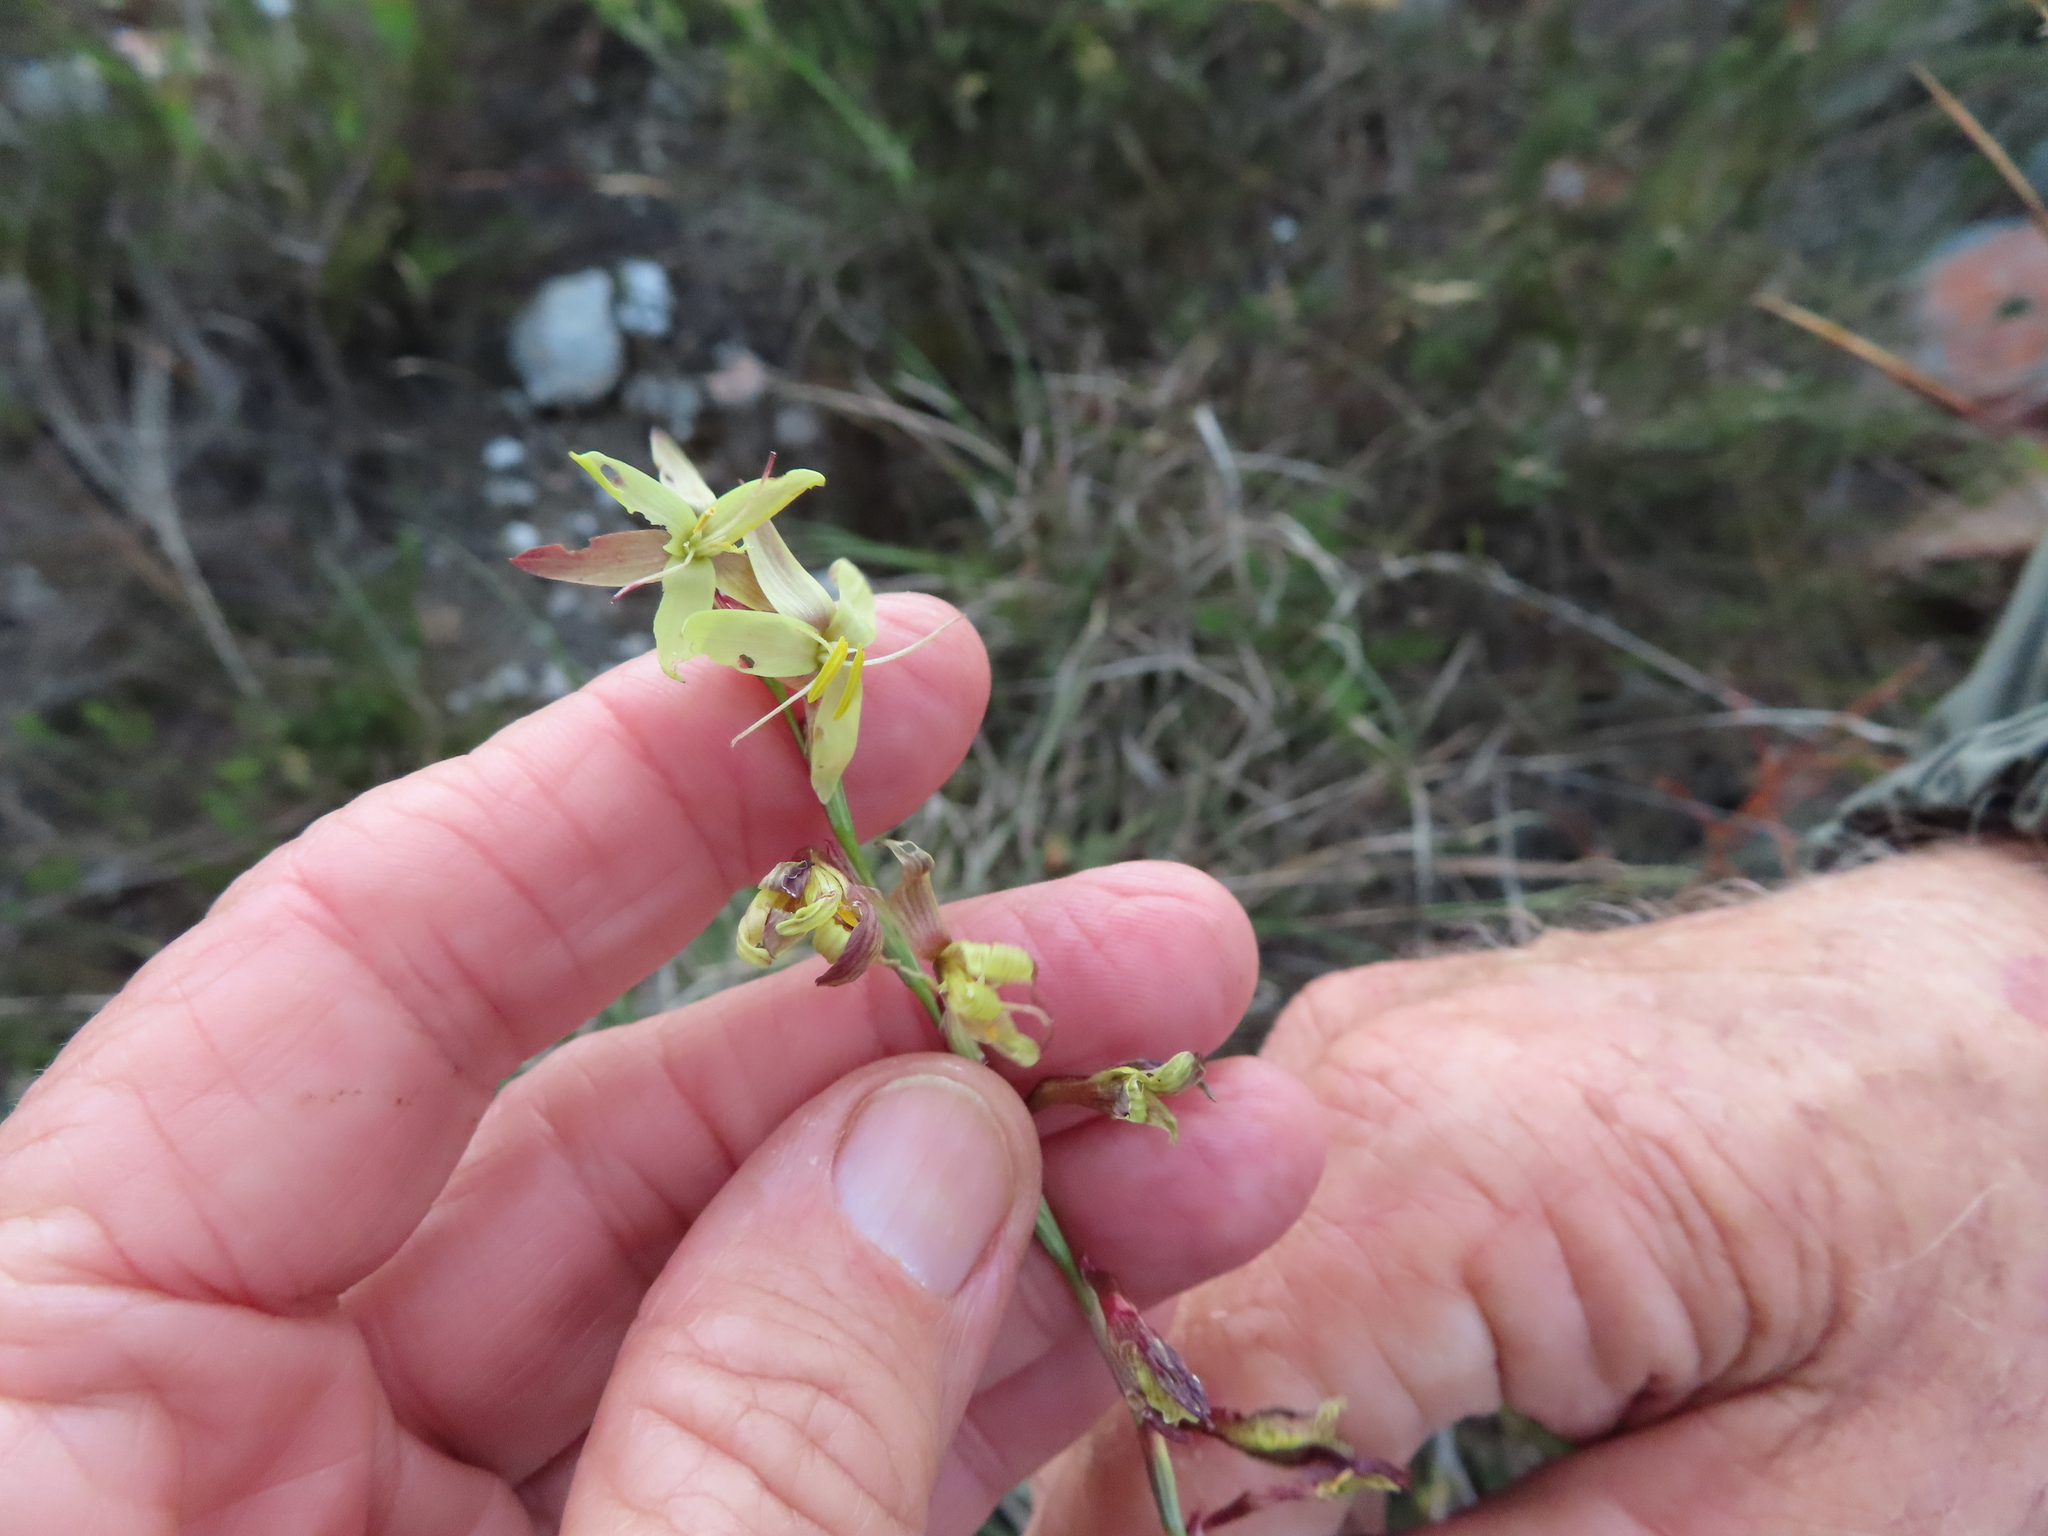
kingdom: Plantae
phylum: Tracheophyta
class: Liliopsida
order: Asparagales
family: Iridaceae
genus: Hesperantha
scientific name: Hesperantha radiata
